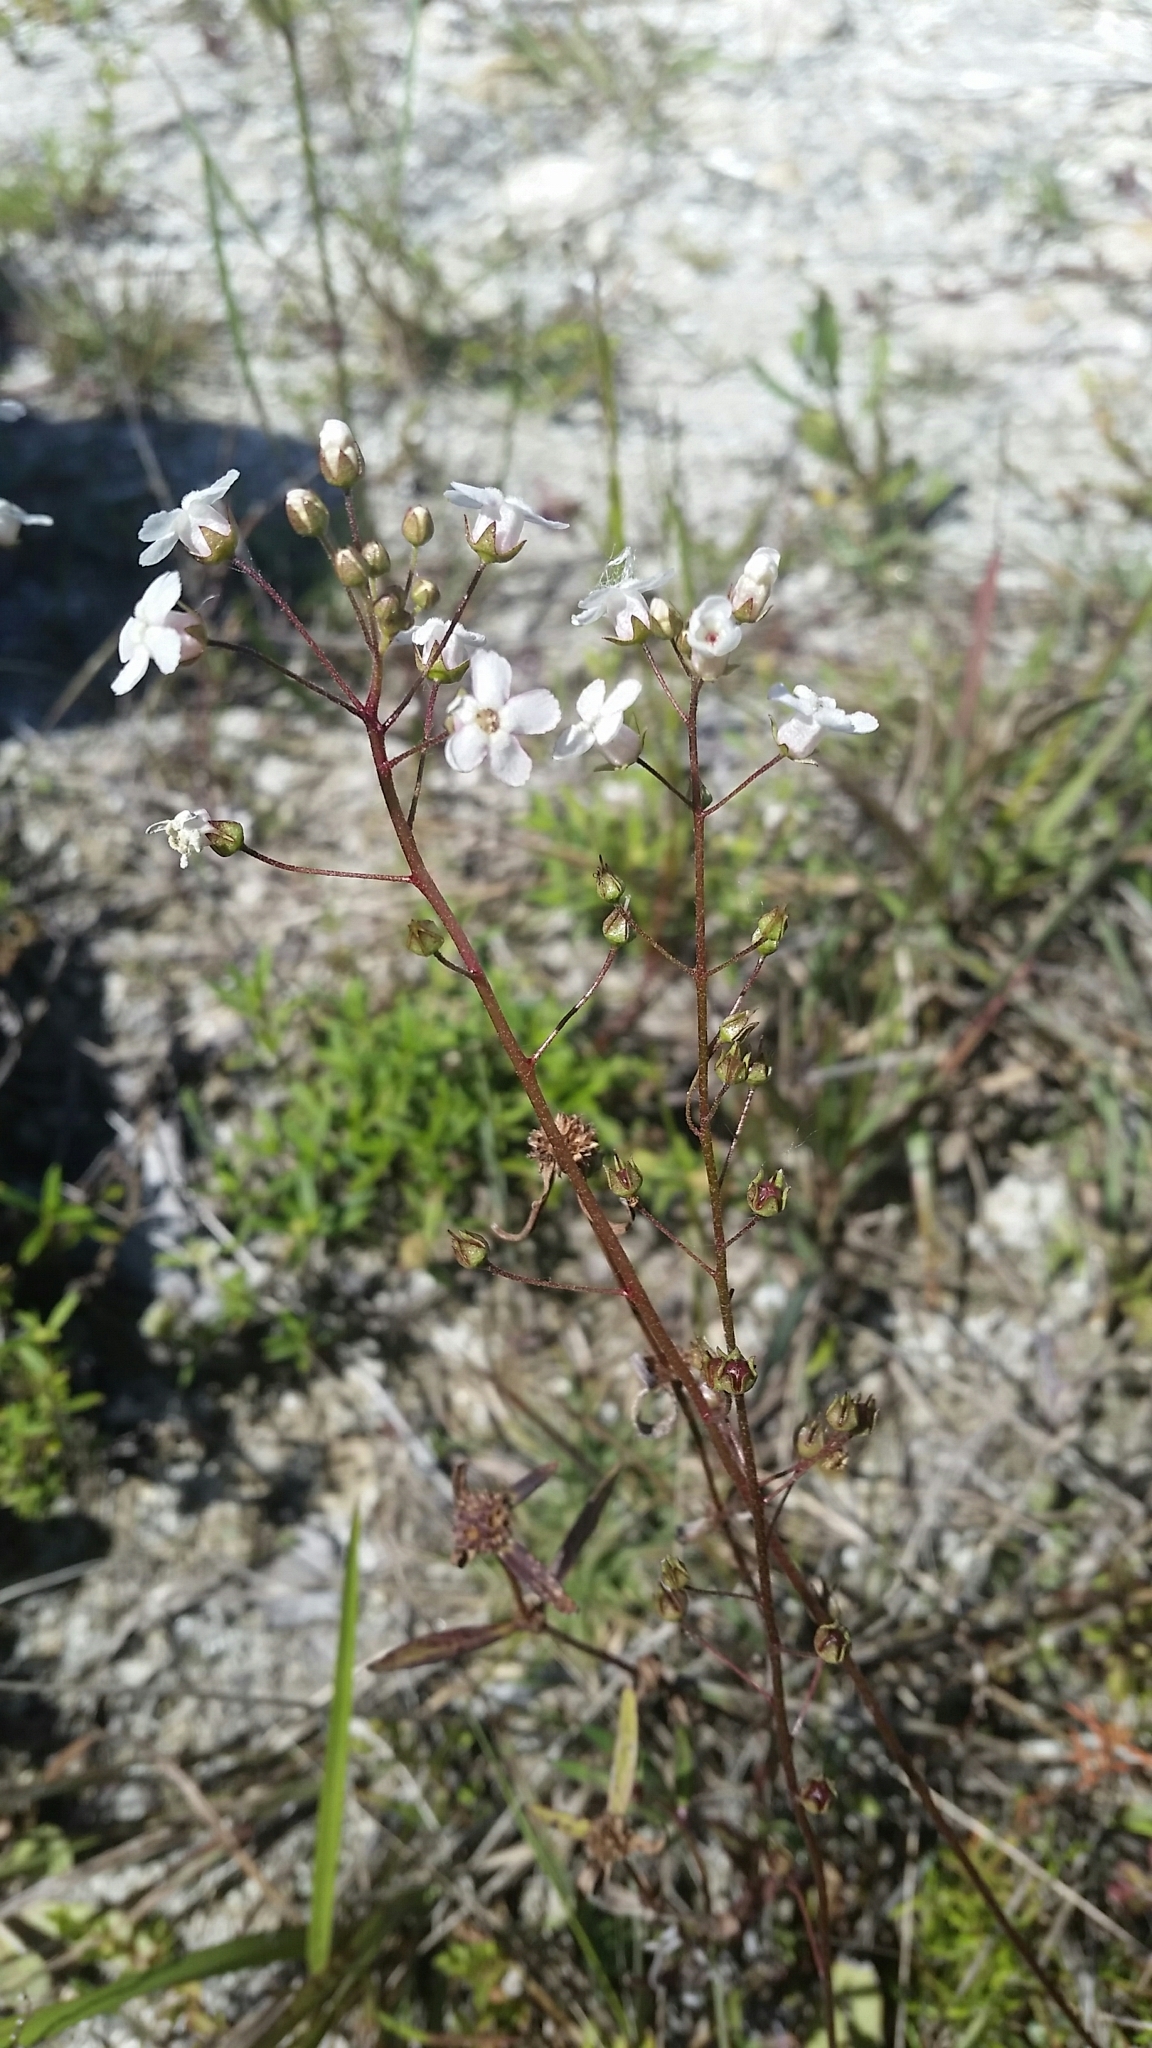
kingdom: Plantae
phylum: Tracheophyta
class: Magnoliopsida
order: Ericales
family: Primulaceae
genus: Samolus
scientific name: Samolus ebracteatus
